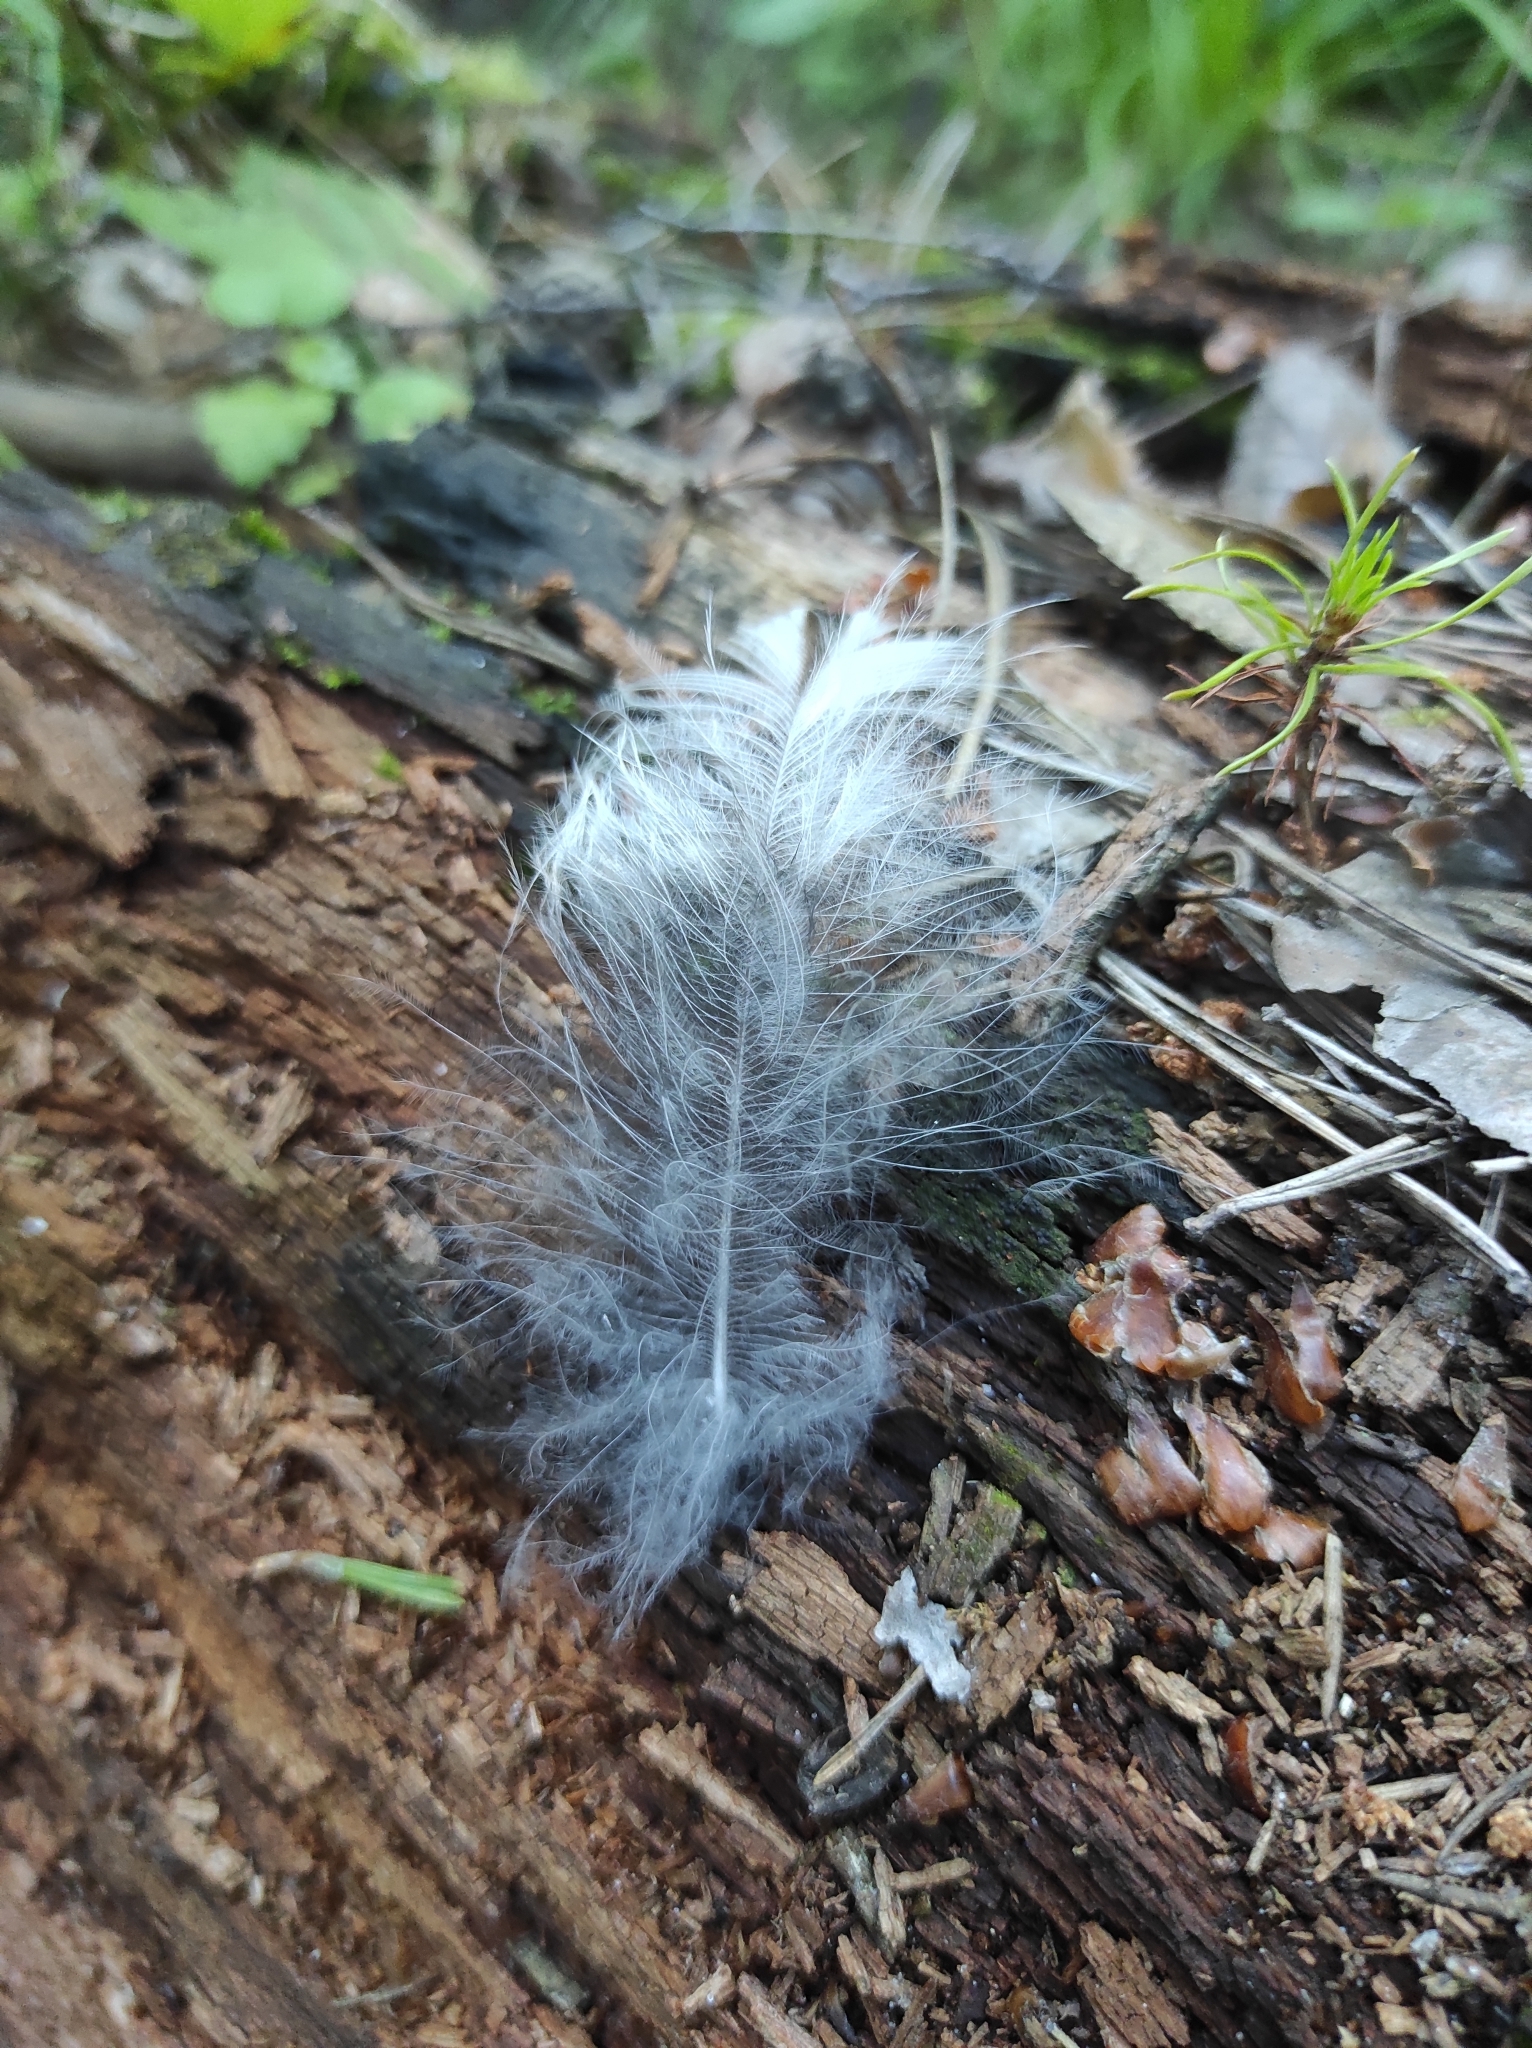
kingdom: Animalia
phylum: Chordata
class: Aves
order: Strigiformes
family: Strigidae
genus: Strix
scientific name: Strix uralensis
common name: Ural owl
